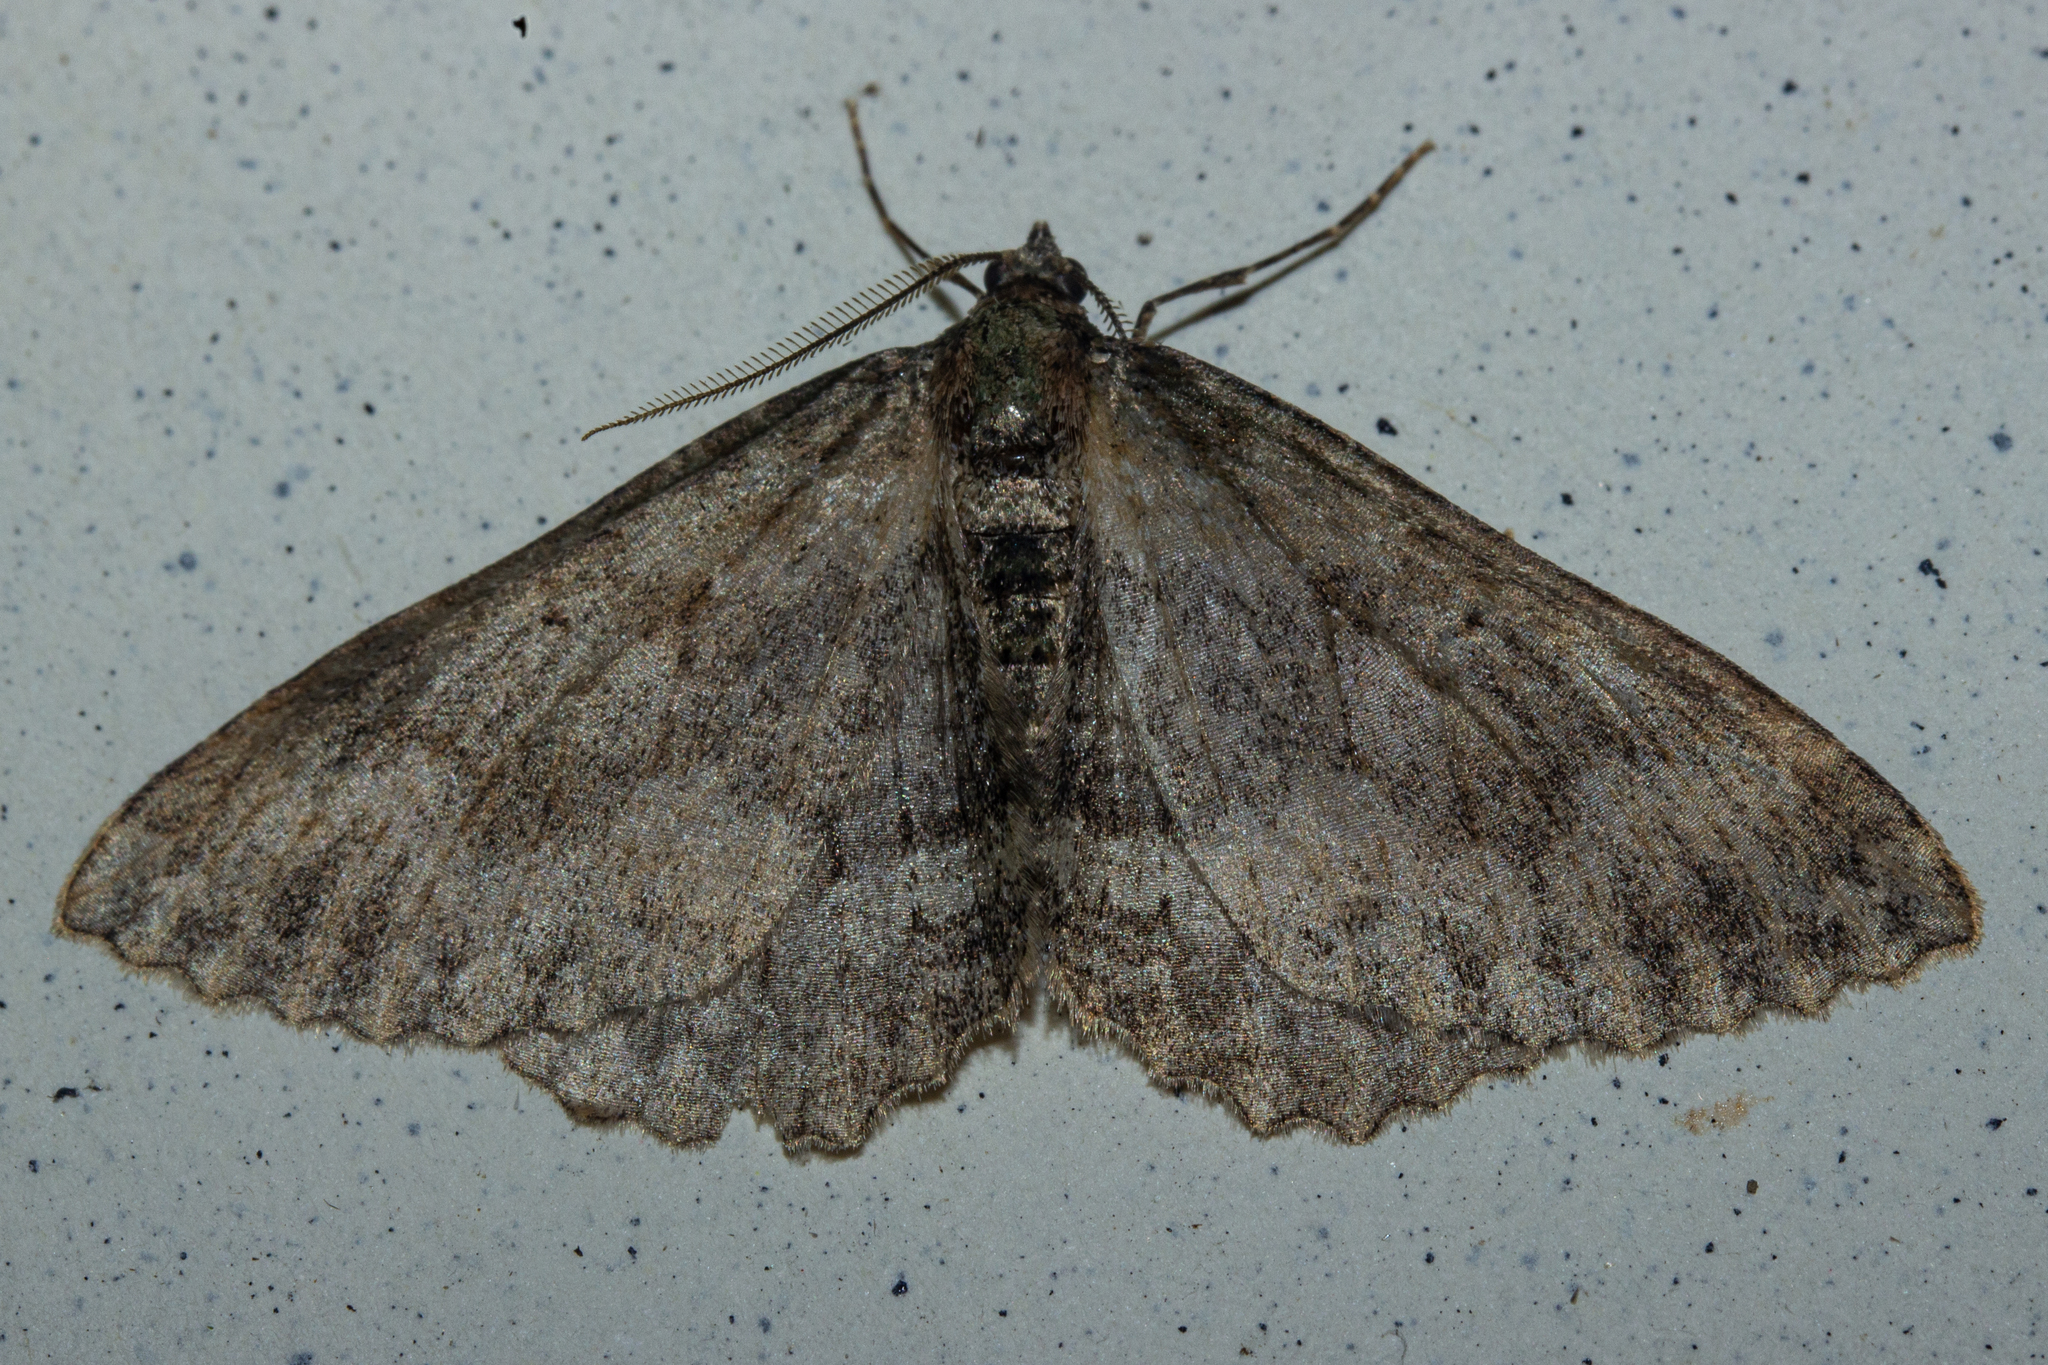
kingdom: Animalia
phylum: Arthropoda
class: Insecta
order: Lepidoptera
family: Geometridae
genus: Gingidiobora
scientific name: Gingidiobora subobscurata
